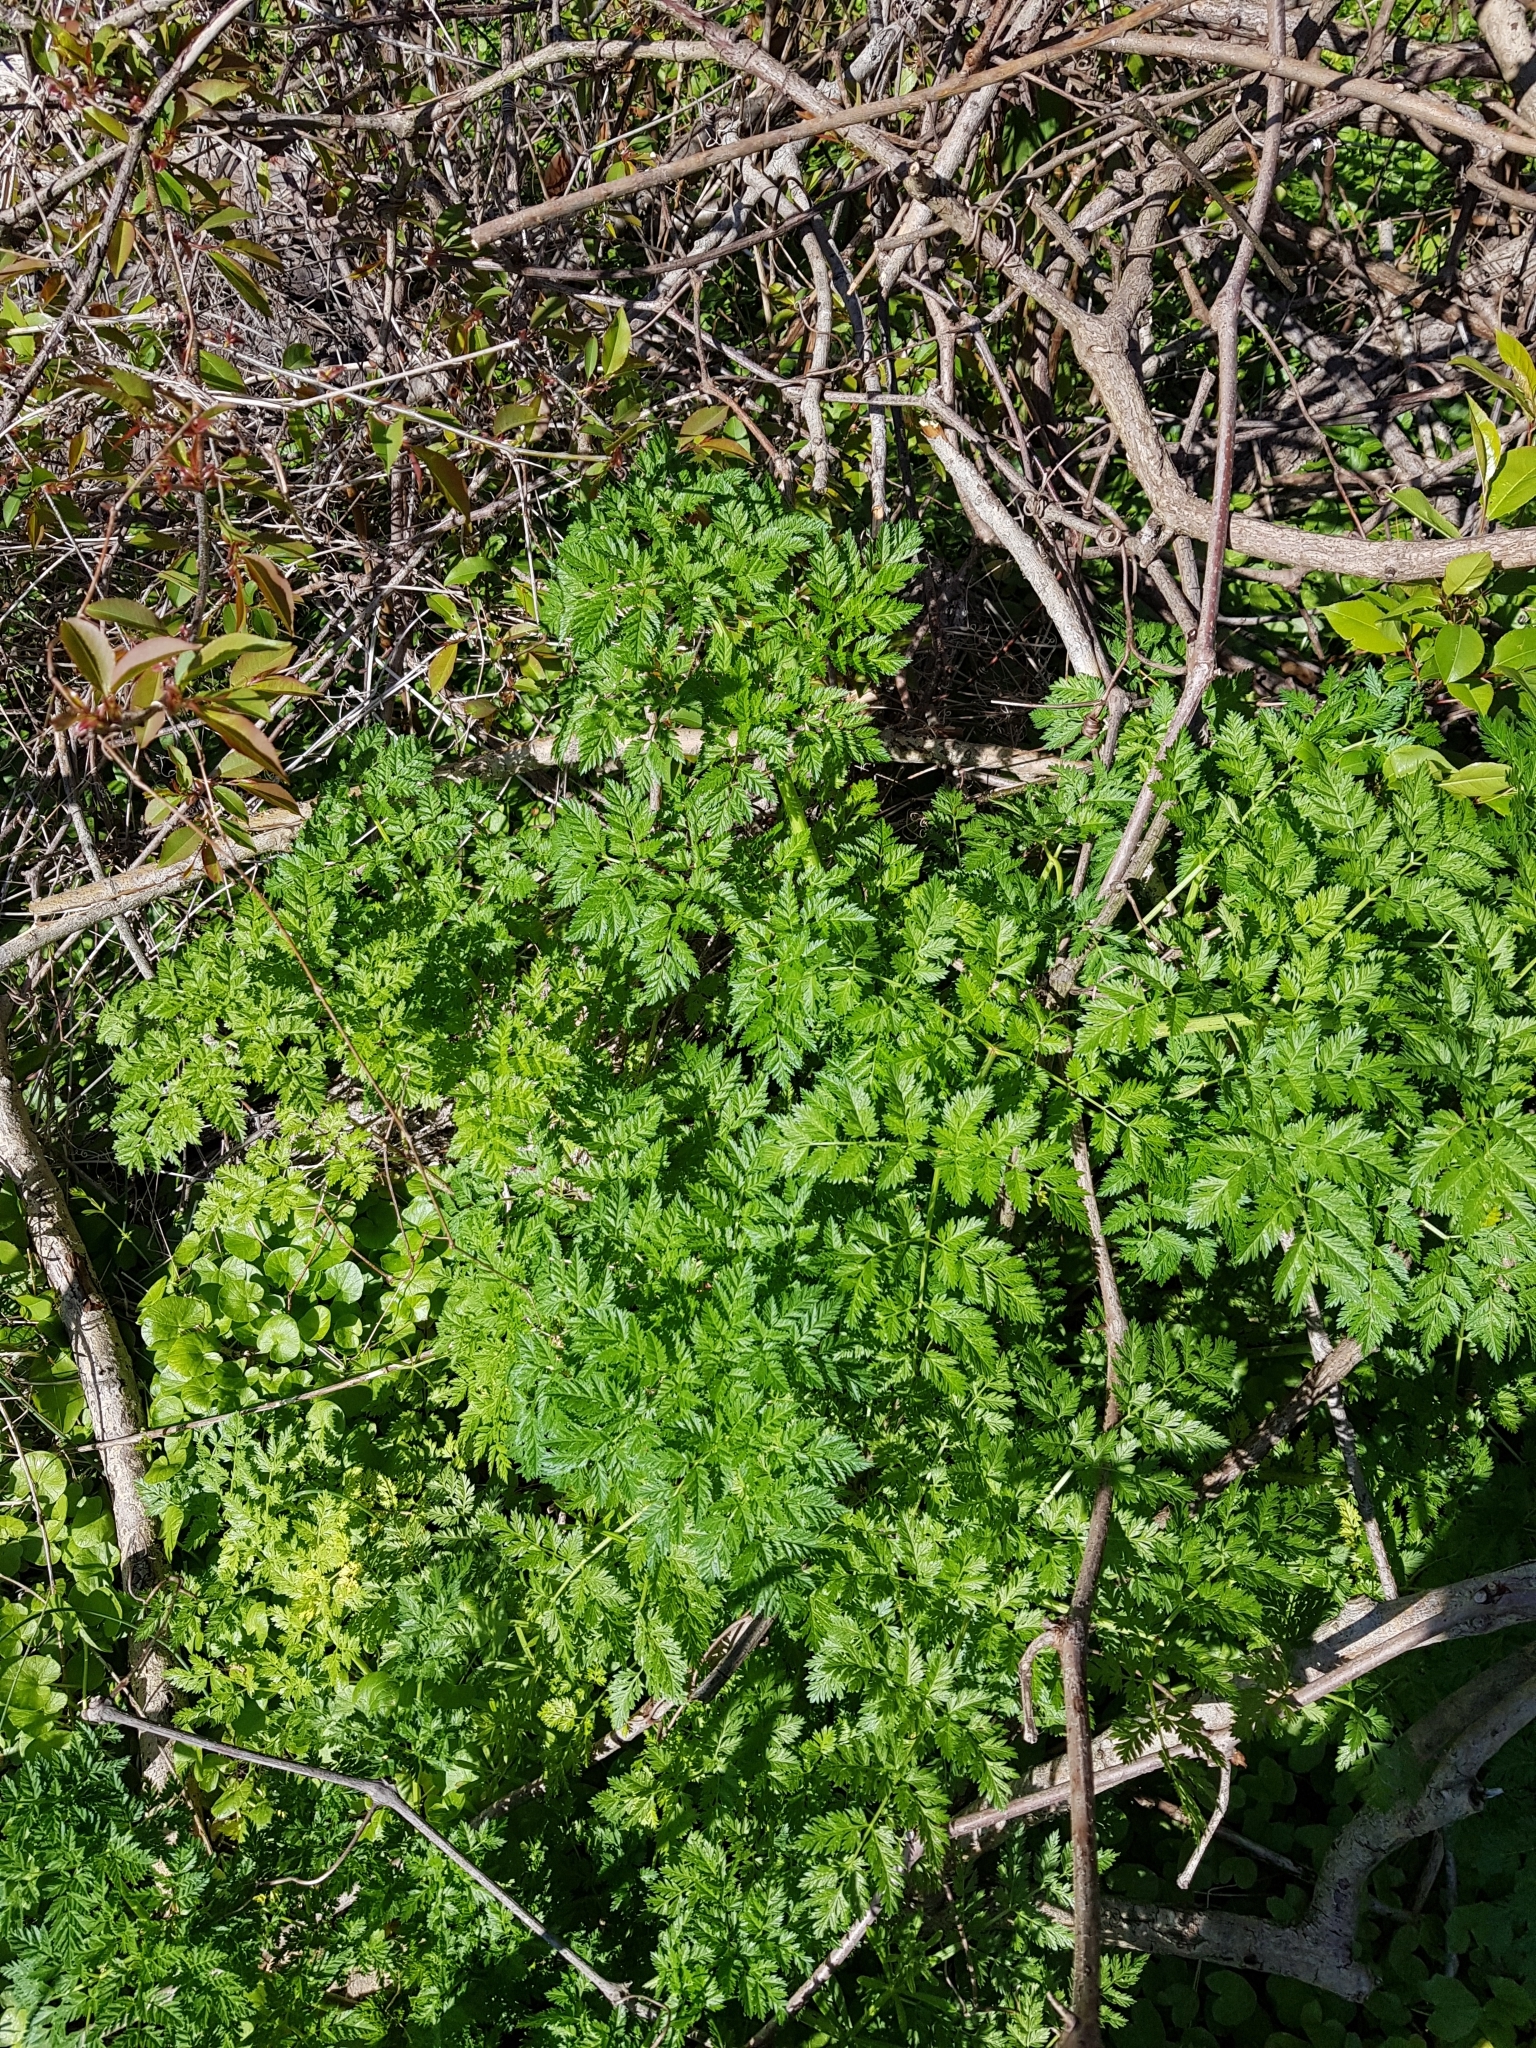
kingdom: Plantae
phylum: Tracheophyta
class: Magnoliopsida
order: Apiales
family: Apiaceae
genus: Conium
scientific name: Conium maculatum
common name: Hemlock
